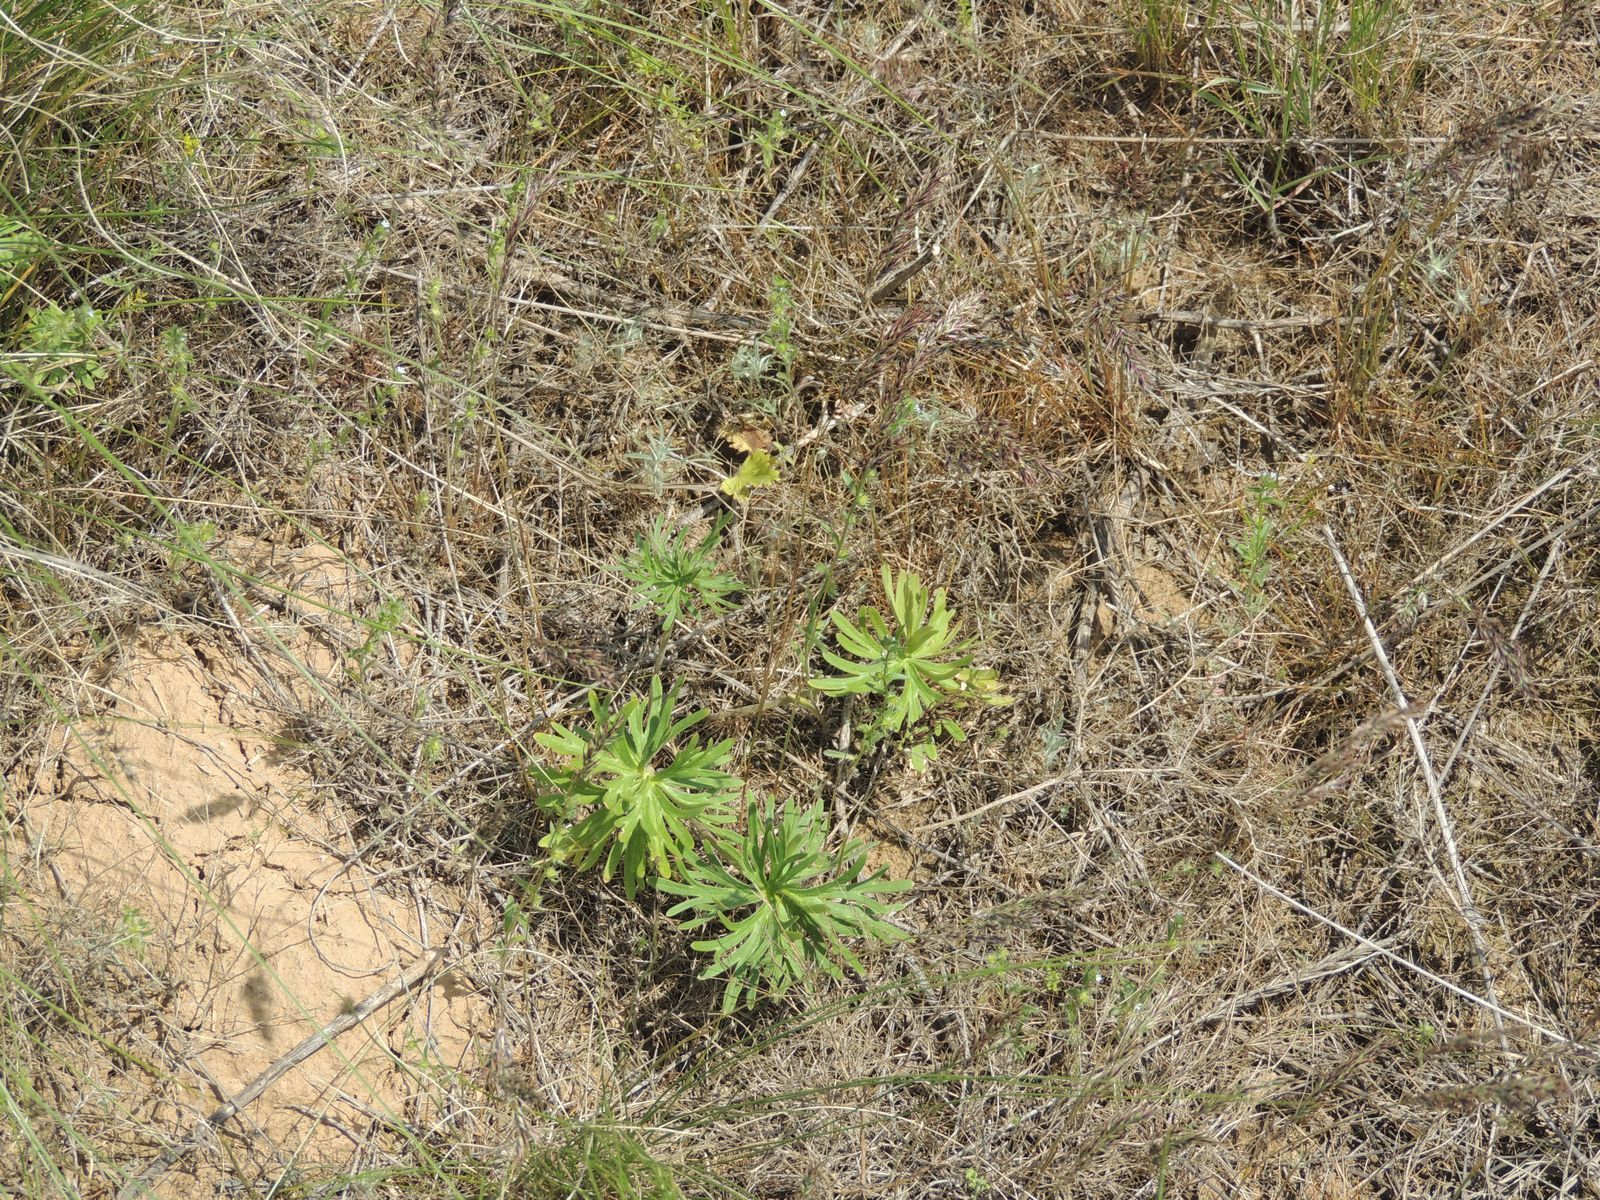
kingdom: Plantae
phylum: Tracheophyta
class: Magnoliopsida
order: Ranunculales
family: Ranunculaceae
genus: Delphinium
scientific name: Delphinium puniceum
